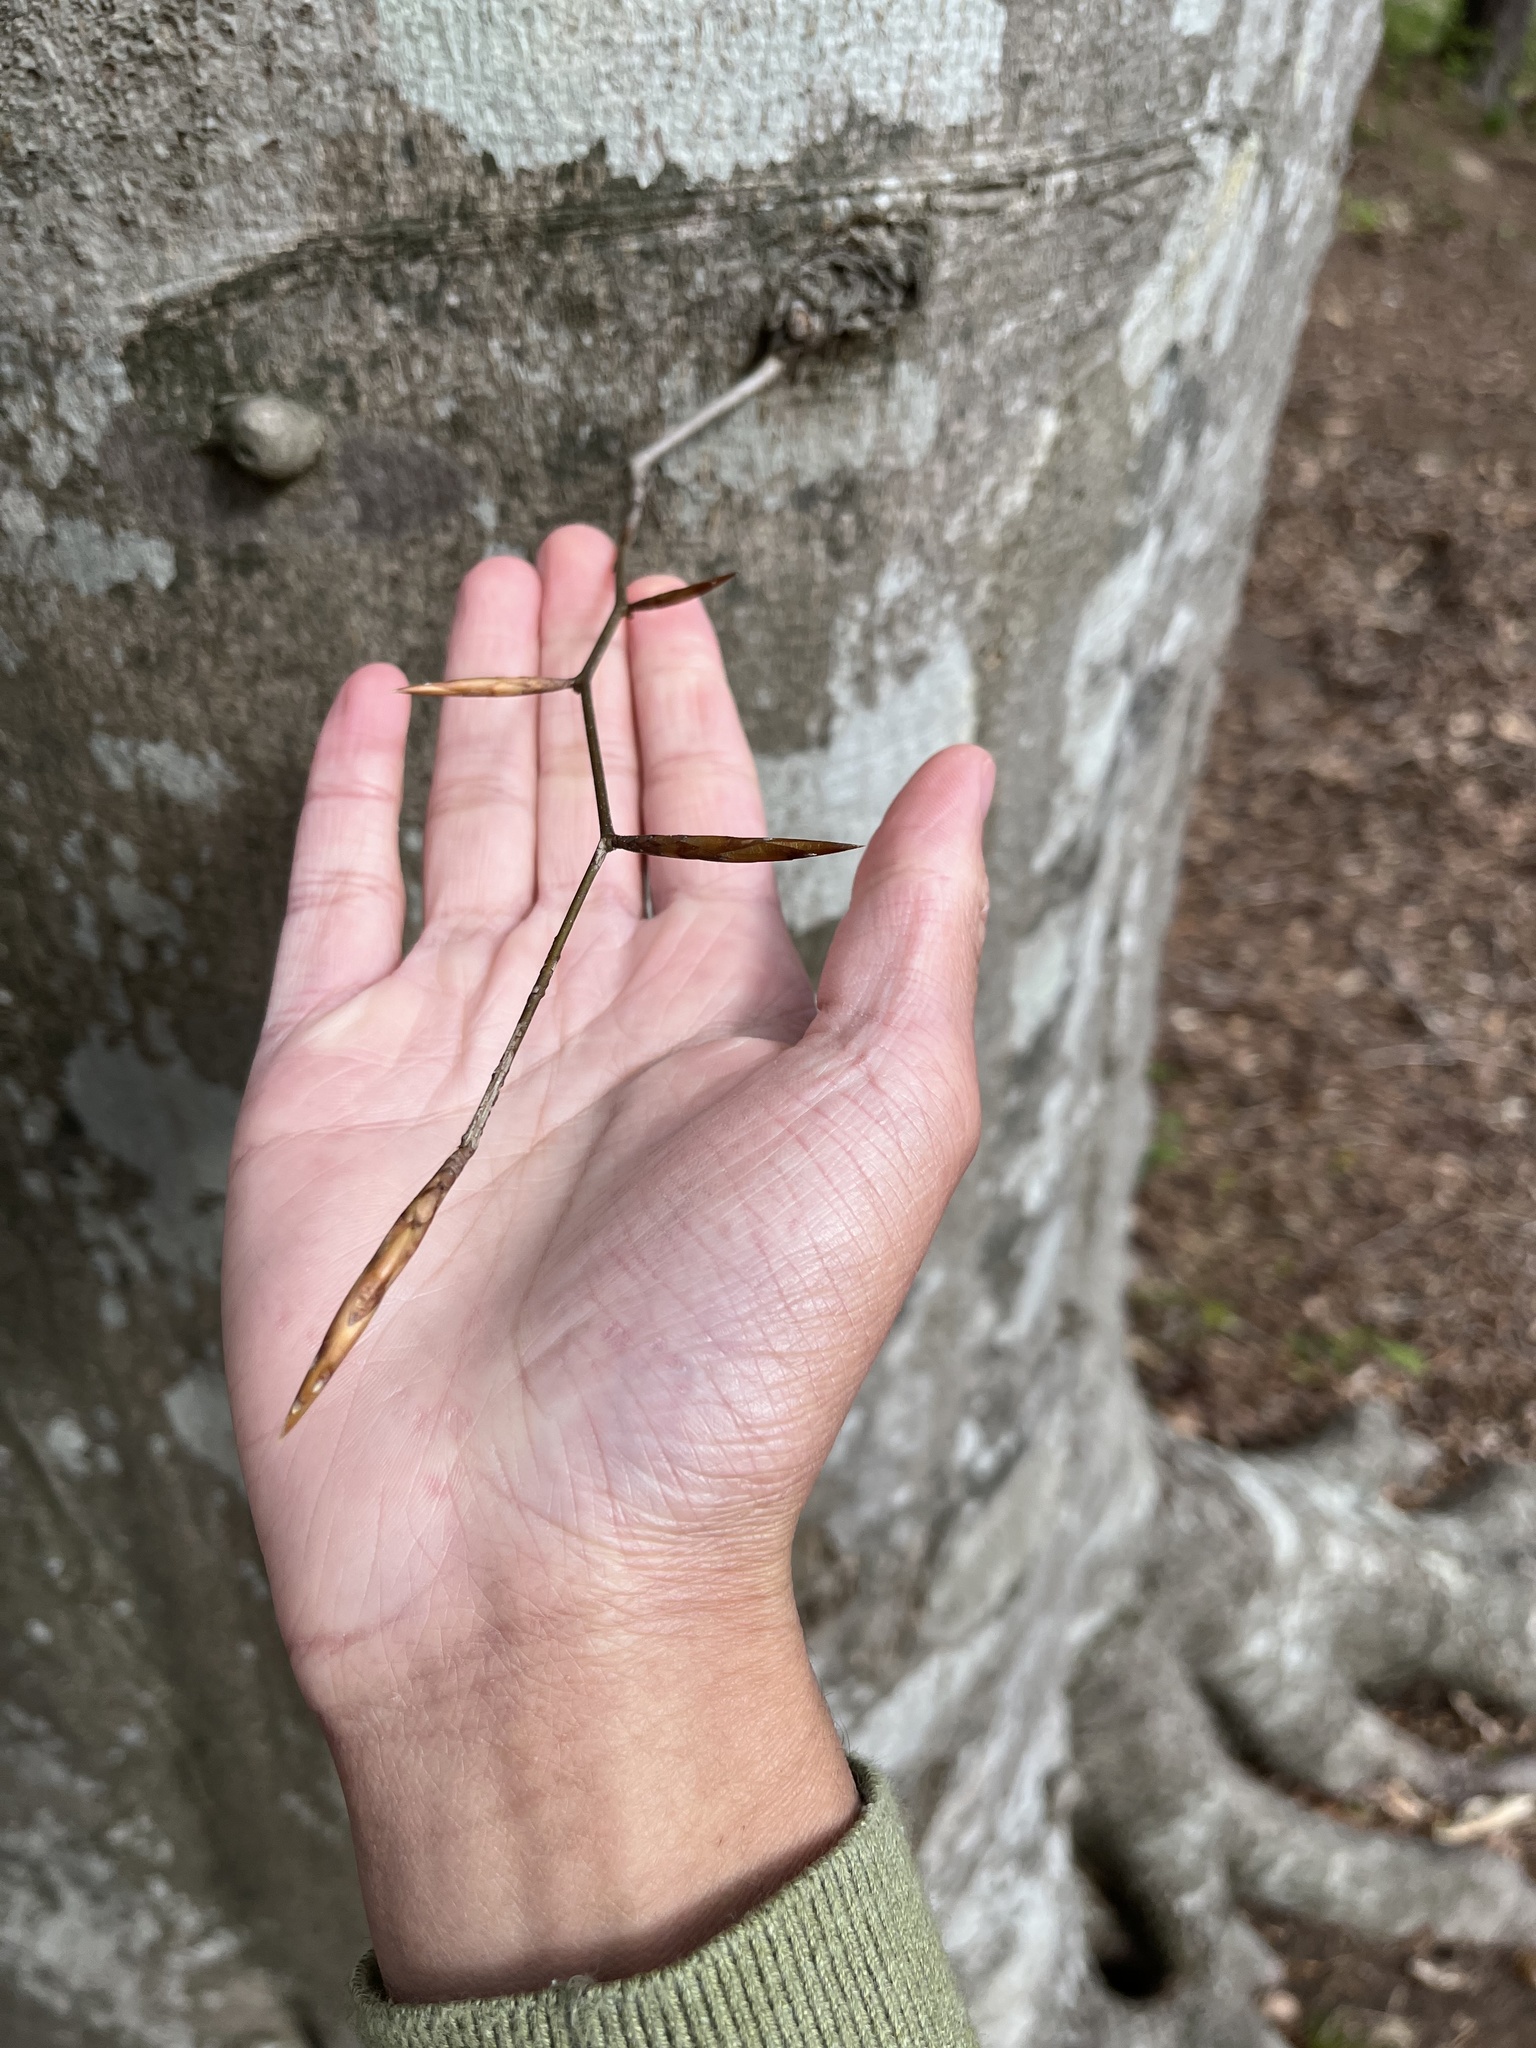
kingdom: Plantae
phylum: Tracheophyta
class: Magnoliopsida
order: Fagales
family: Fagaceae
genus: Fagus
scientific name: Fagus grandifolia
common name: American beech
